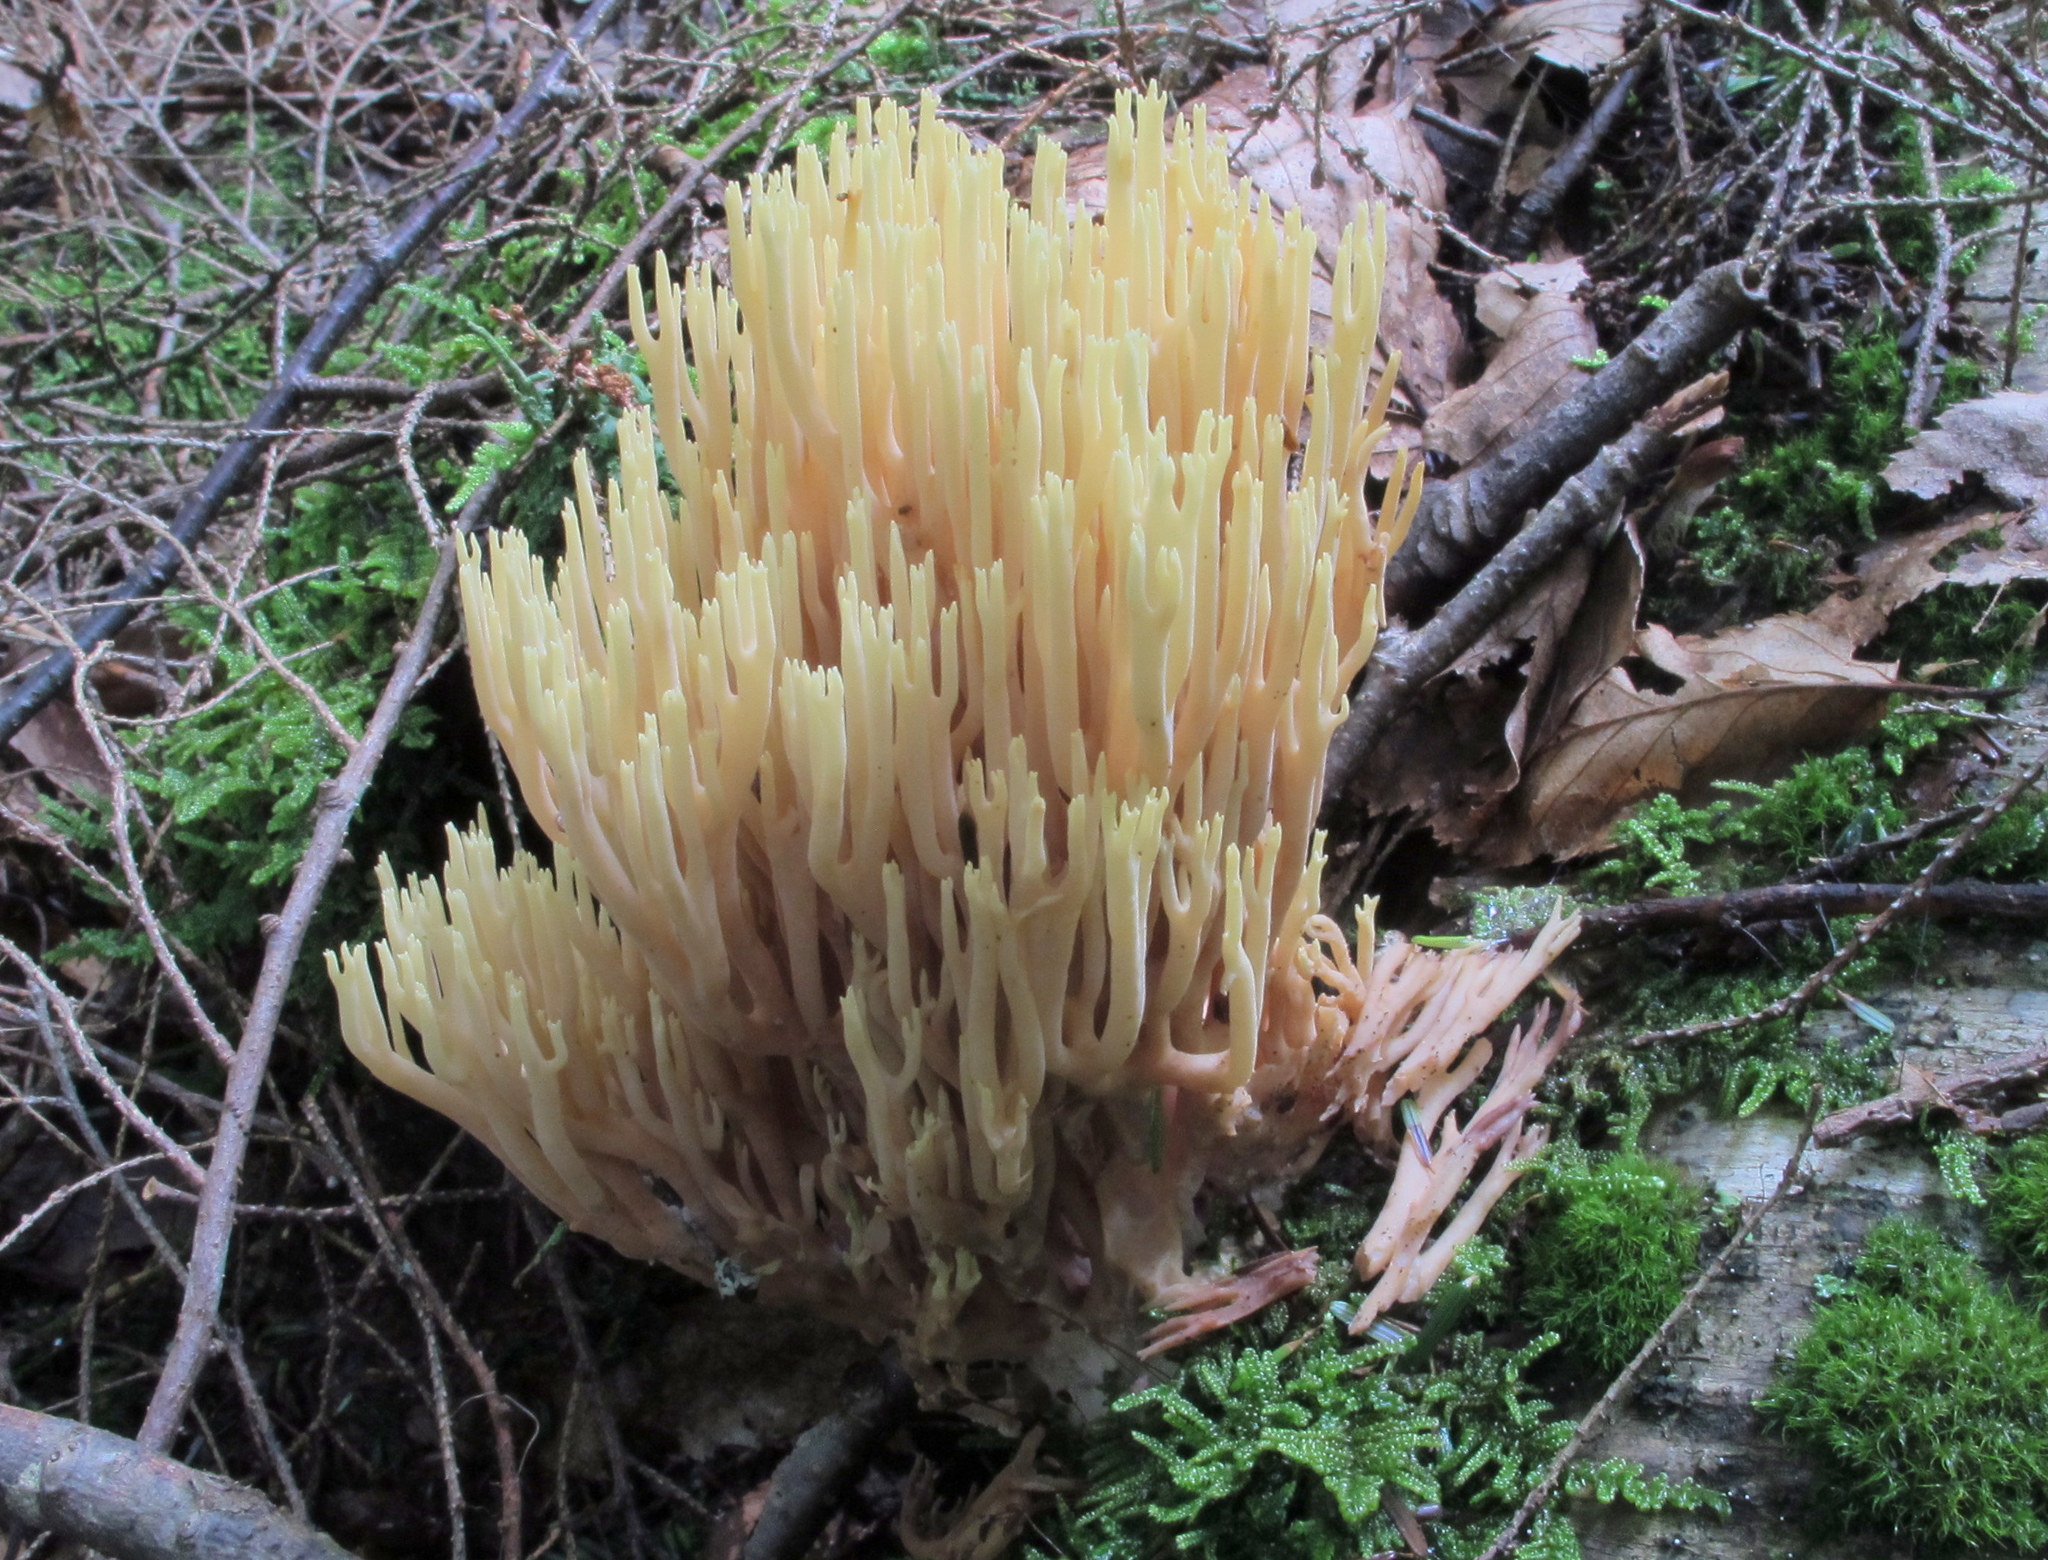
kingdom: Fungi
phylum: Basidiomycota
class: Agaricomycetes
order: Gomphales
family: Gomphaceae
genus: Ramaria
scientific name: Ramaria stricta
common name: Upright coral
